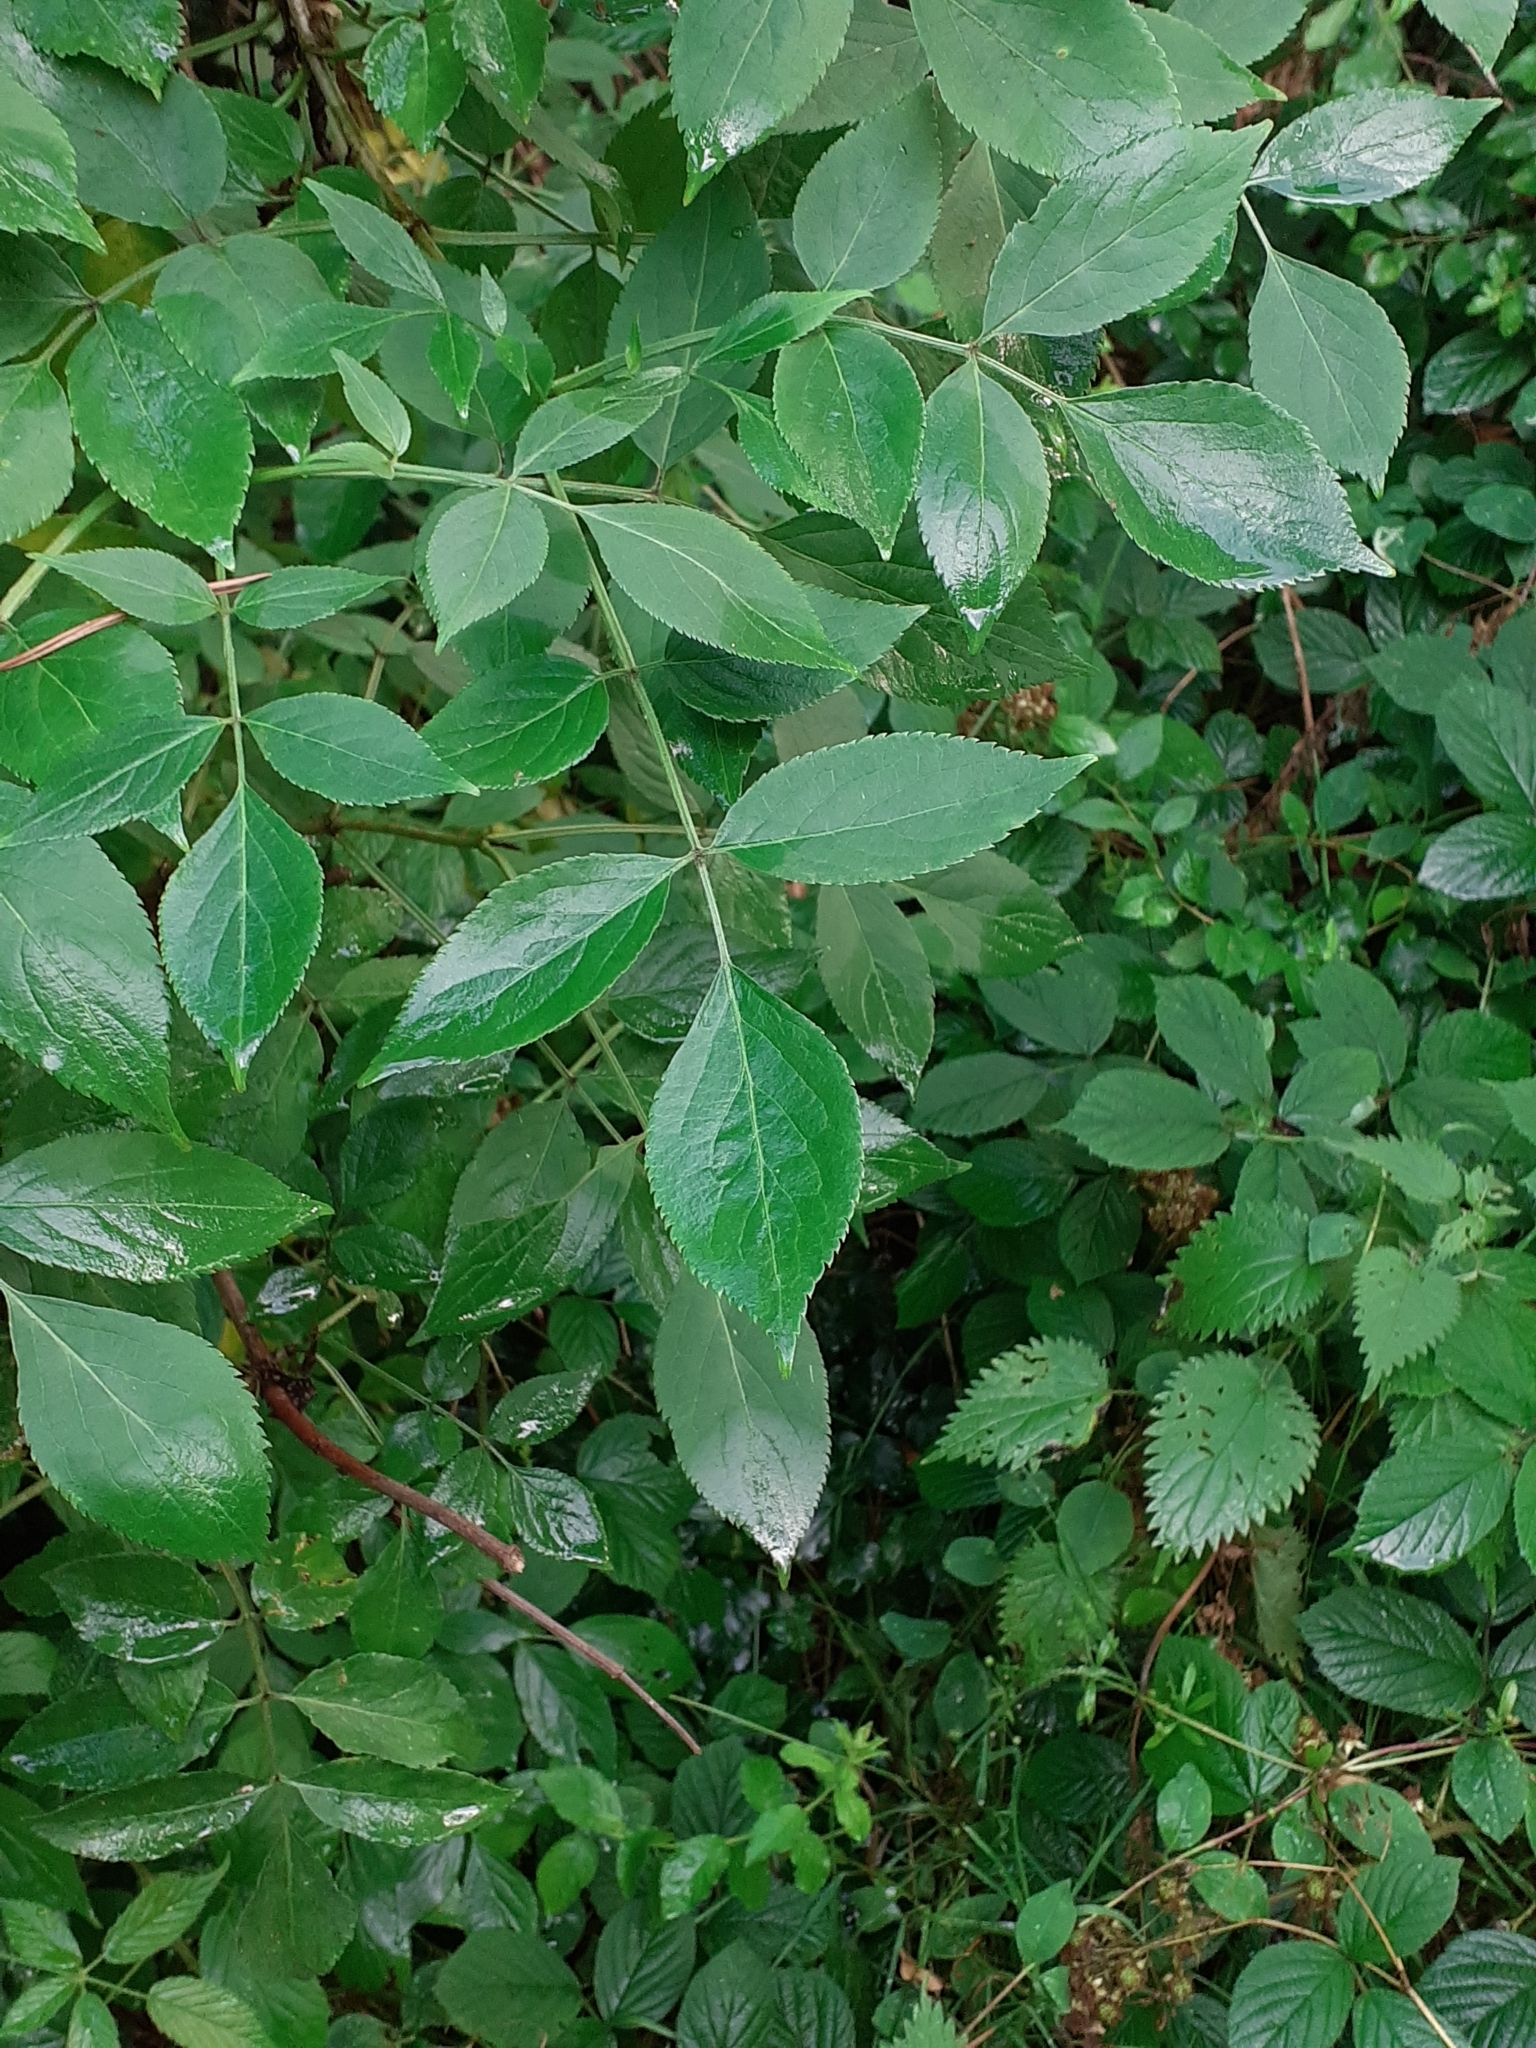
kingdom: Plantae
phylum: Tracheophyta
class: Magnoliopsida
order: Dipsacales
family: Viburnaceae
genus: Sambucus
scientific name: Sambucus nigra
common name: Elder
